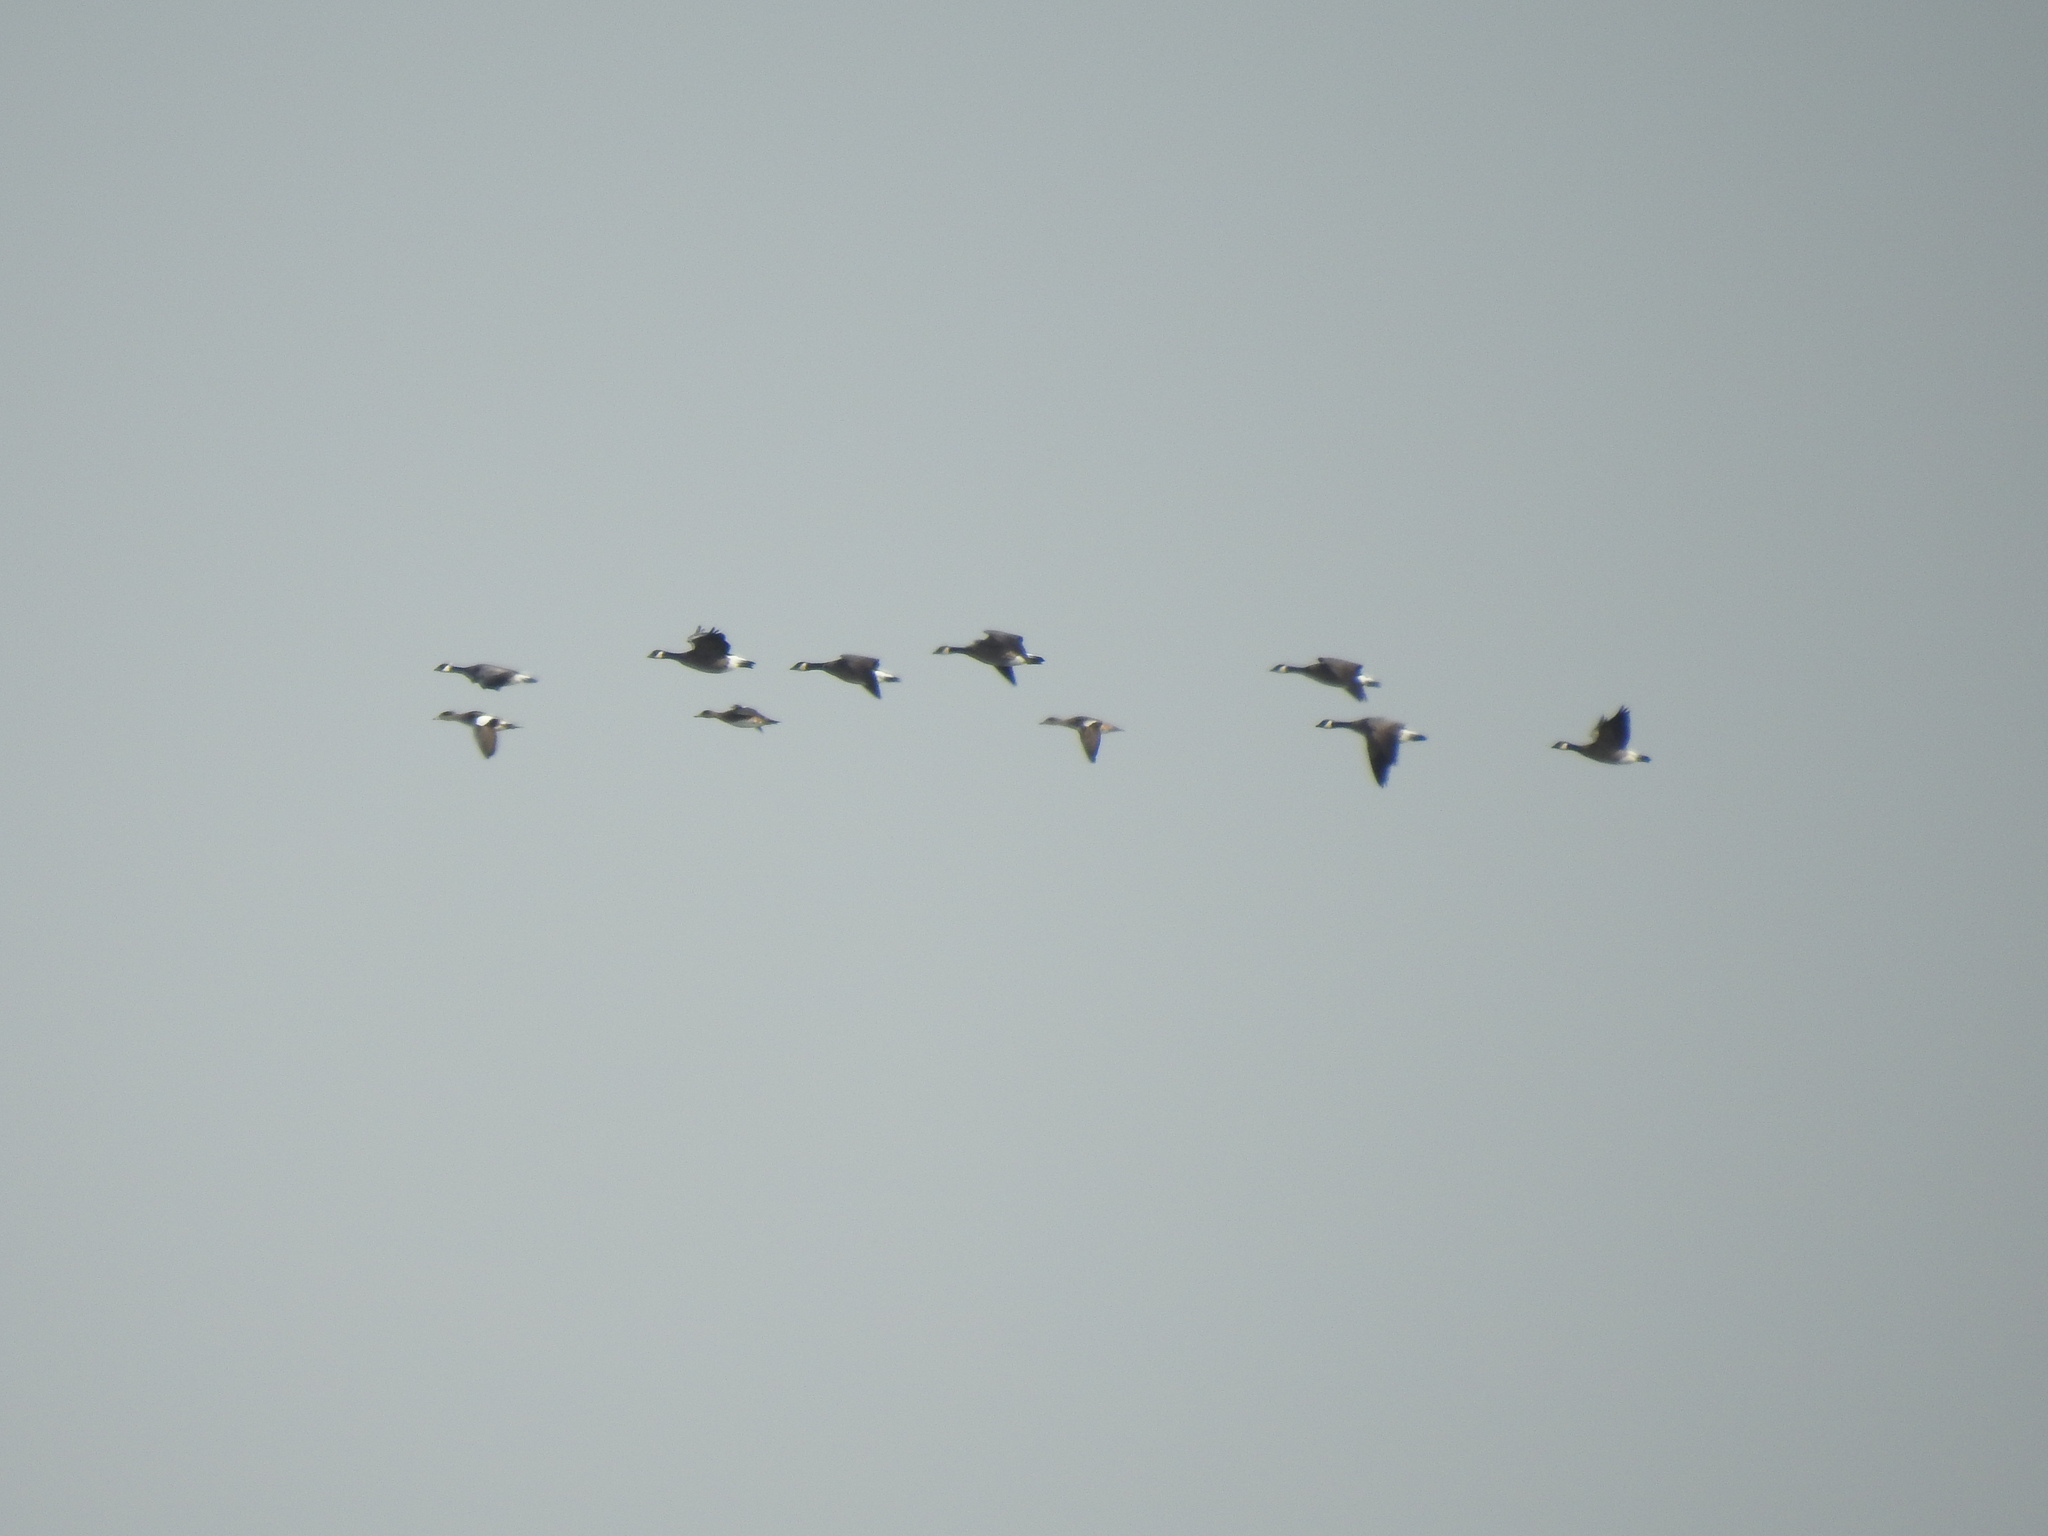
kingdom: Animalia
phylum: Chordata
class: Aves
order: Anseriformes
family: Anatidae
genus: Mareca
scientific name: Mareca americana
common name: American wigeon
